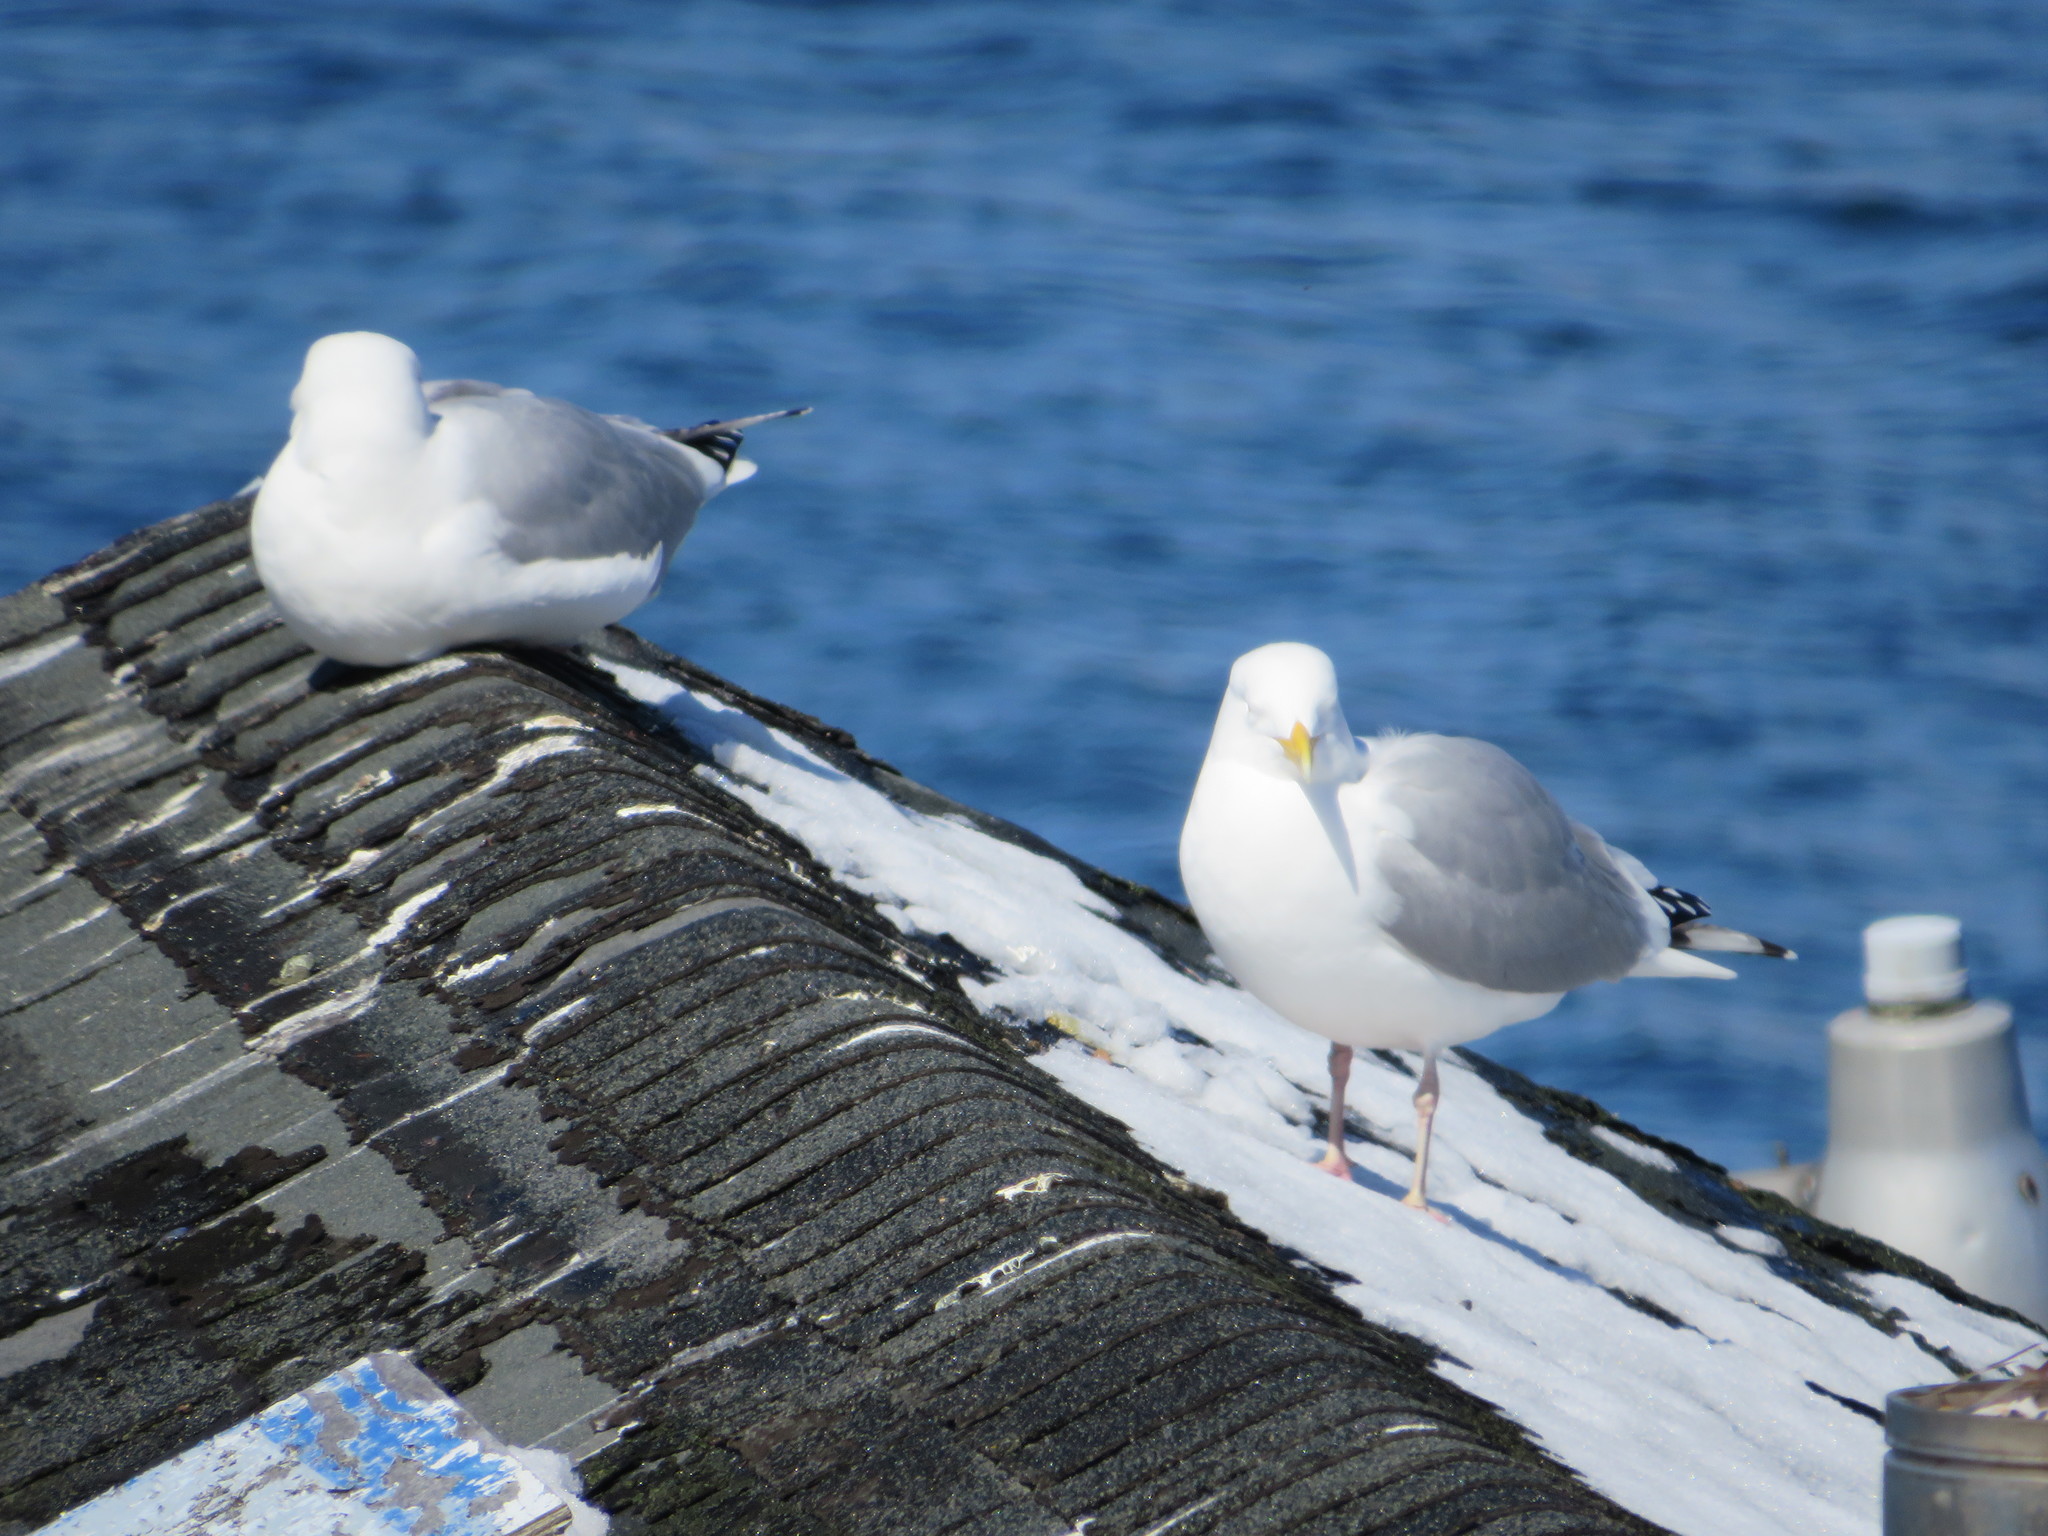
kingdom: Animalia
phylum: Chordata
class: Aves
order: Charadriiformes
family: Laridae
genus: Larus
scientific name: Larus argentatus
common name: Herring gull
